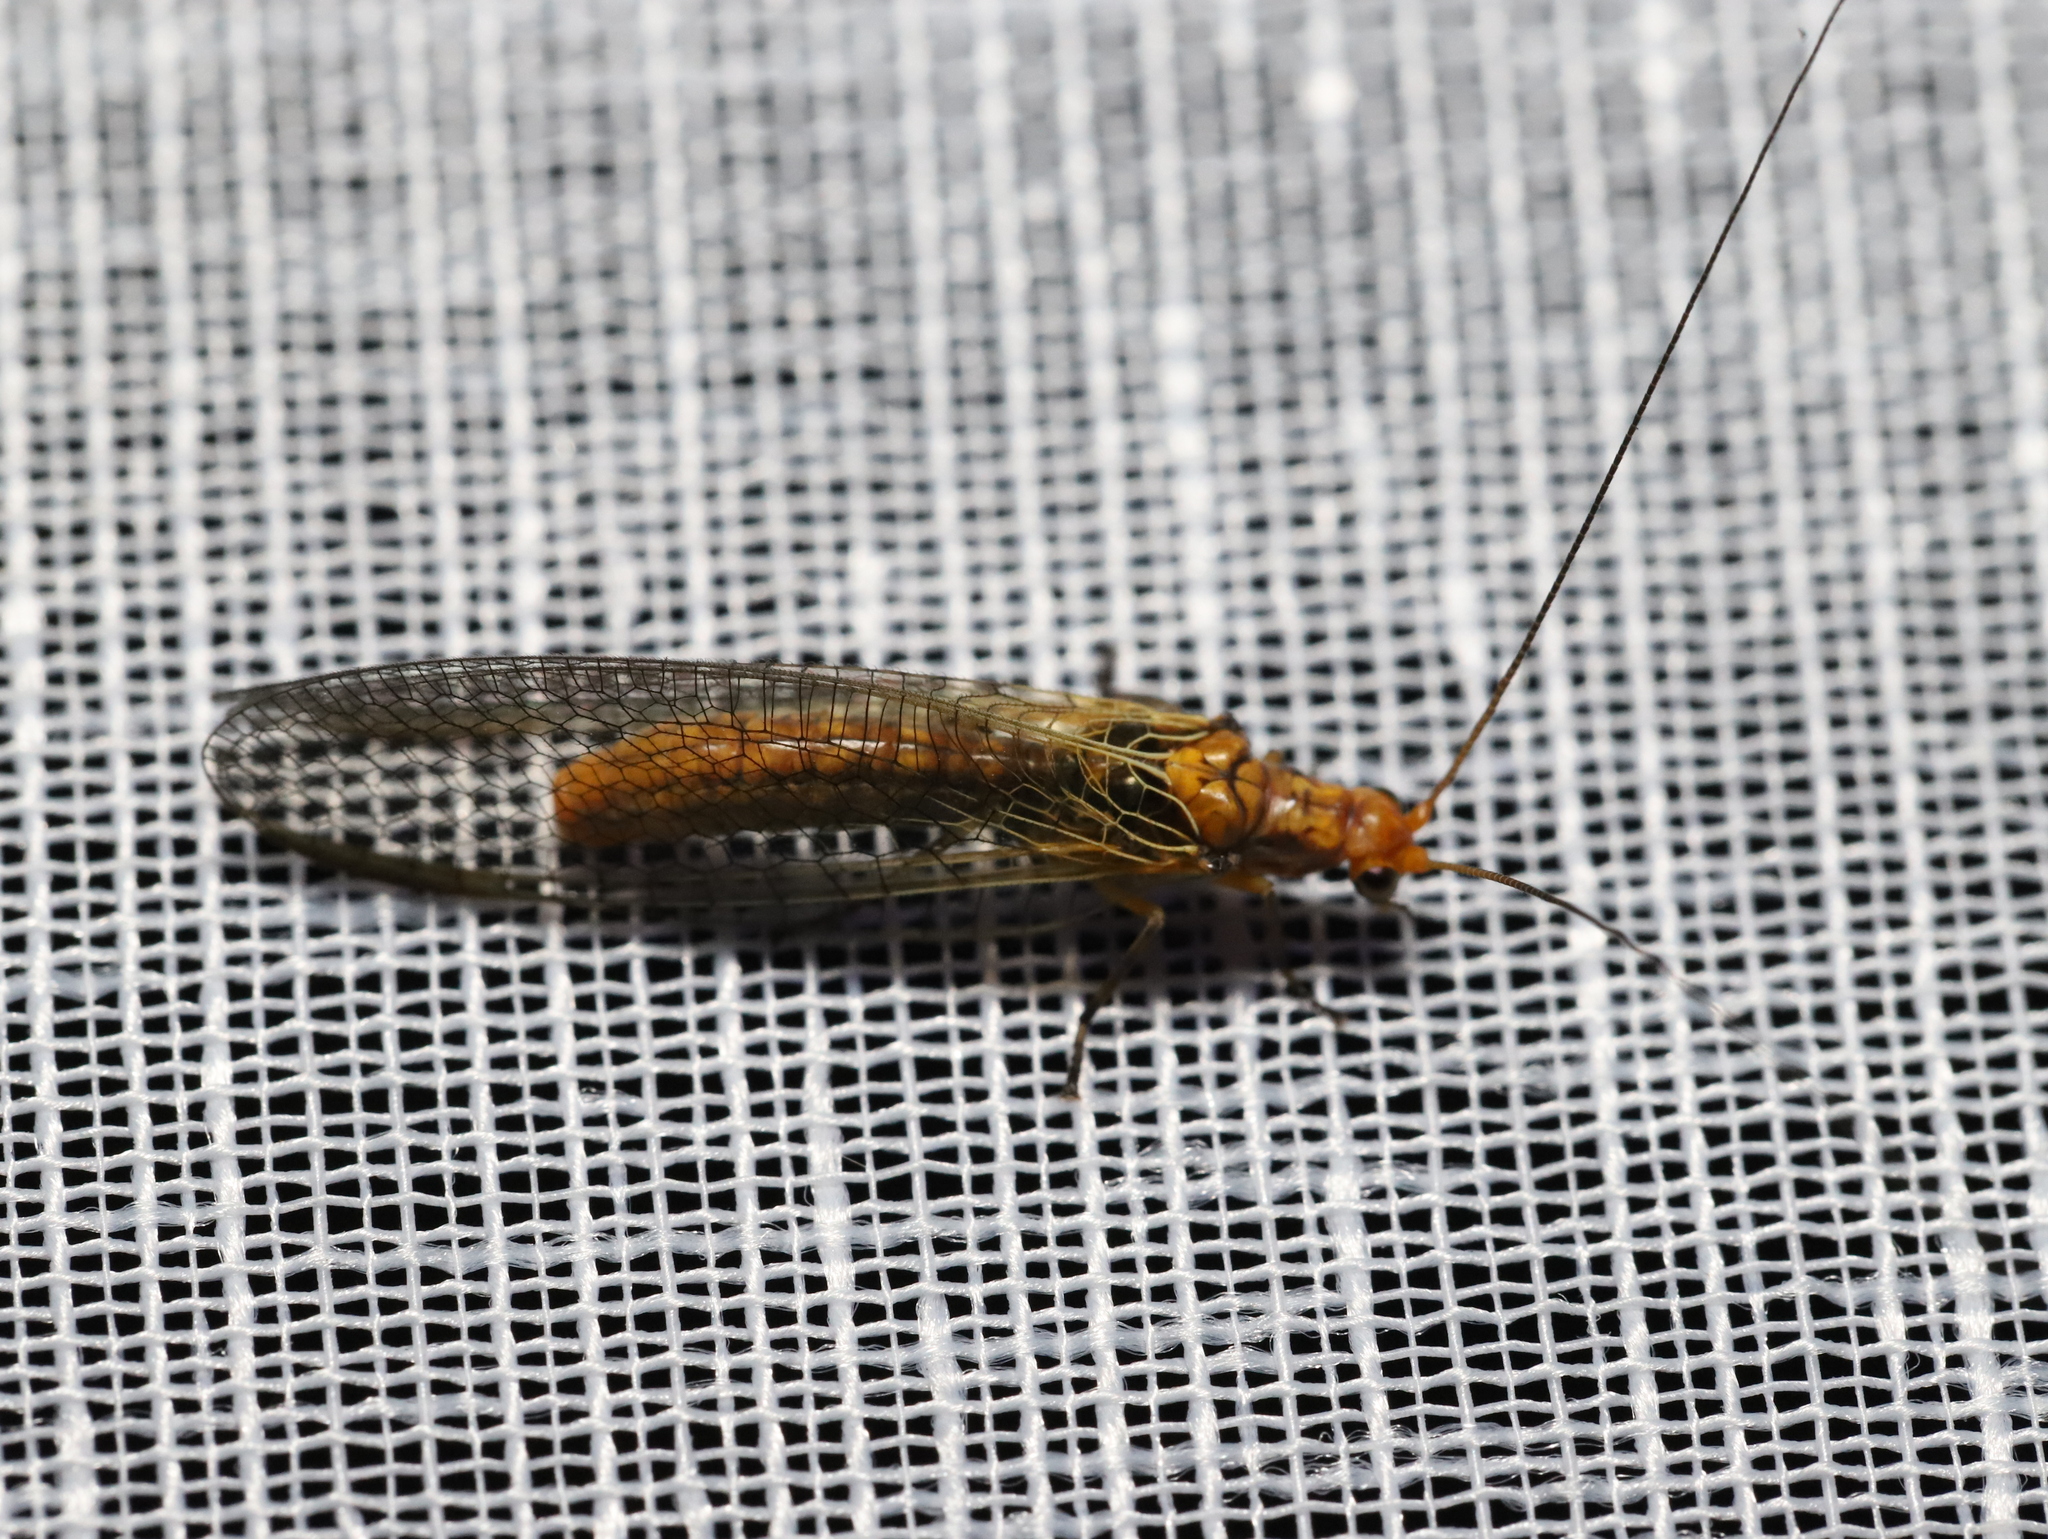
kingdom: Animalia
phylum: Arthropoda
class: Insecta
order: Neuroptera
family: Chrysopidae
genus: Dictyochrysa
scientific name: Dictyochrysa fulva
